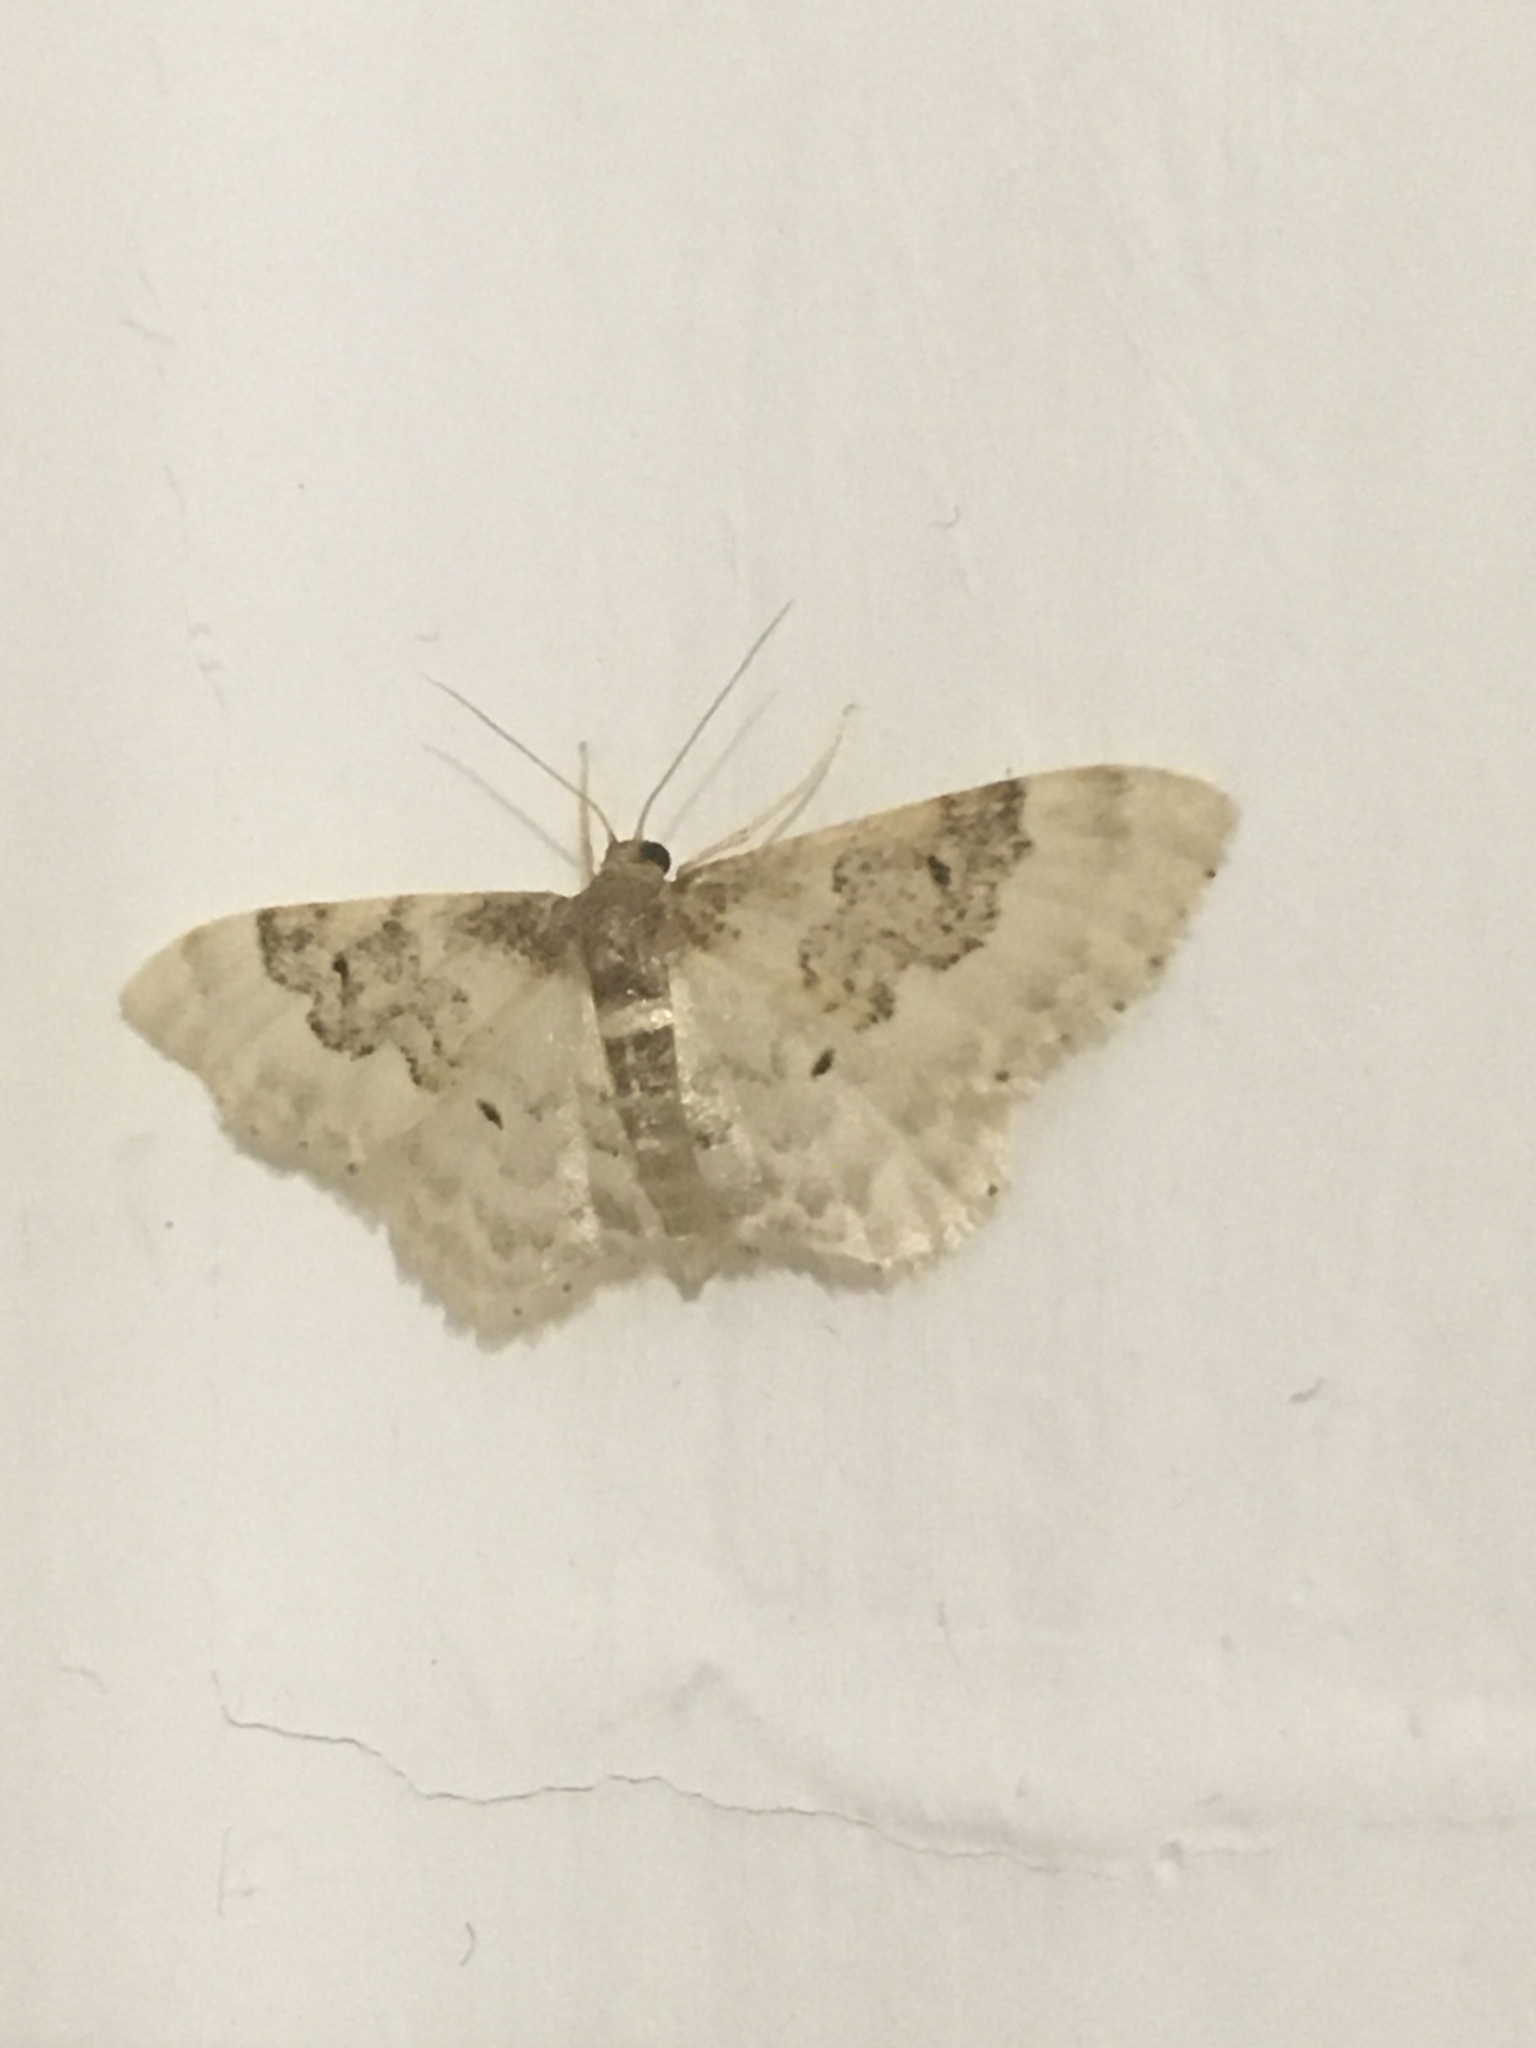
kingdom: Animalia
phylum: Arthropoda
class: Insecta
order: Lepidoptera
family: Geometridae
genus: Idaea
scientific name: Idaea rusticata
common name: Least carpet
